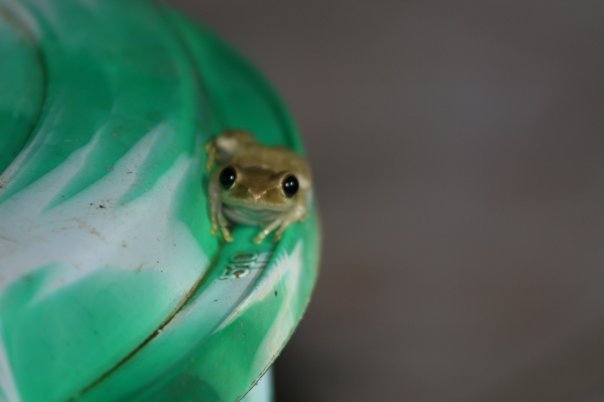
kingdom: Animalia
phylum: Chordata
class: Amphibia
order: Anura
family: Mantellidae
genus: Boophis
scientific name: Boophis tephraeomystax
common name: Dumeril's bright-eyed frog
